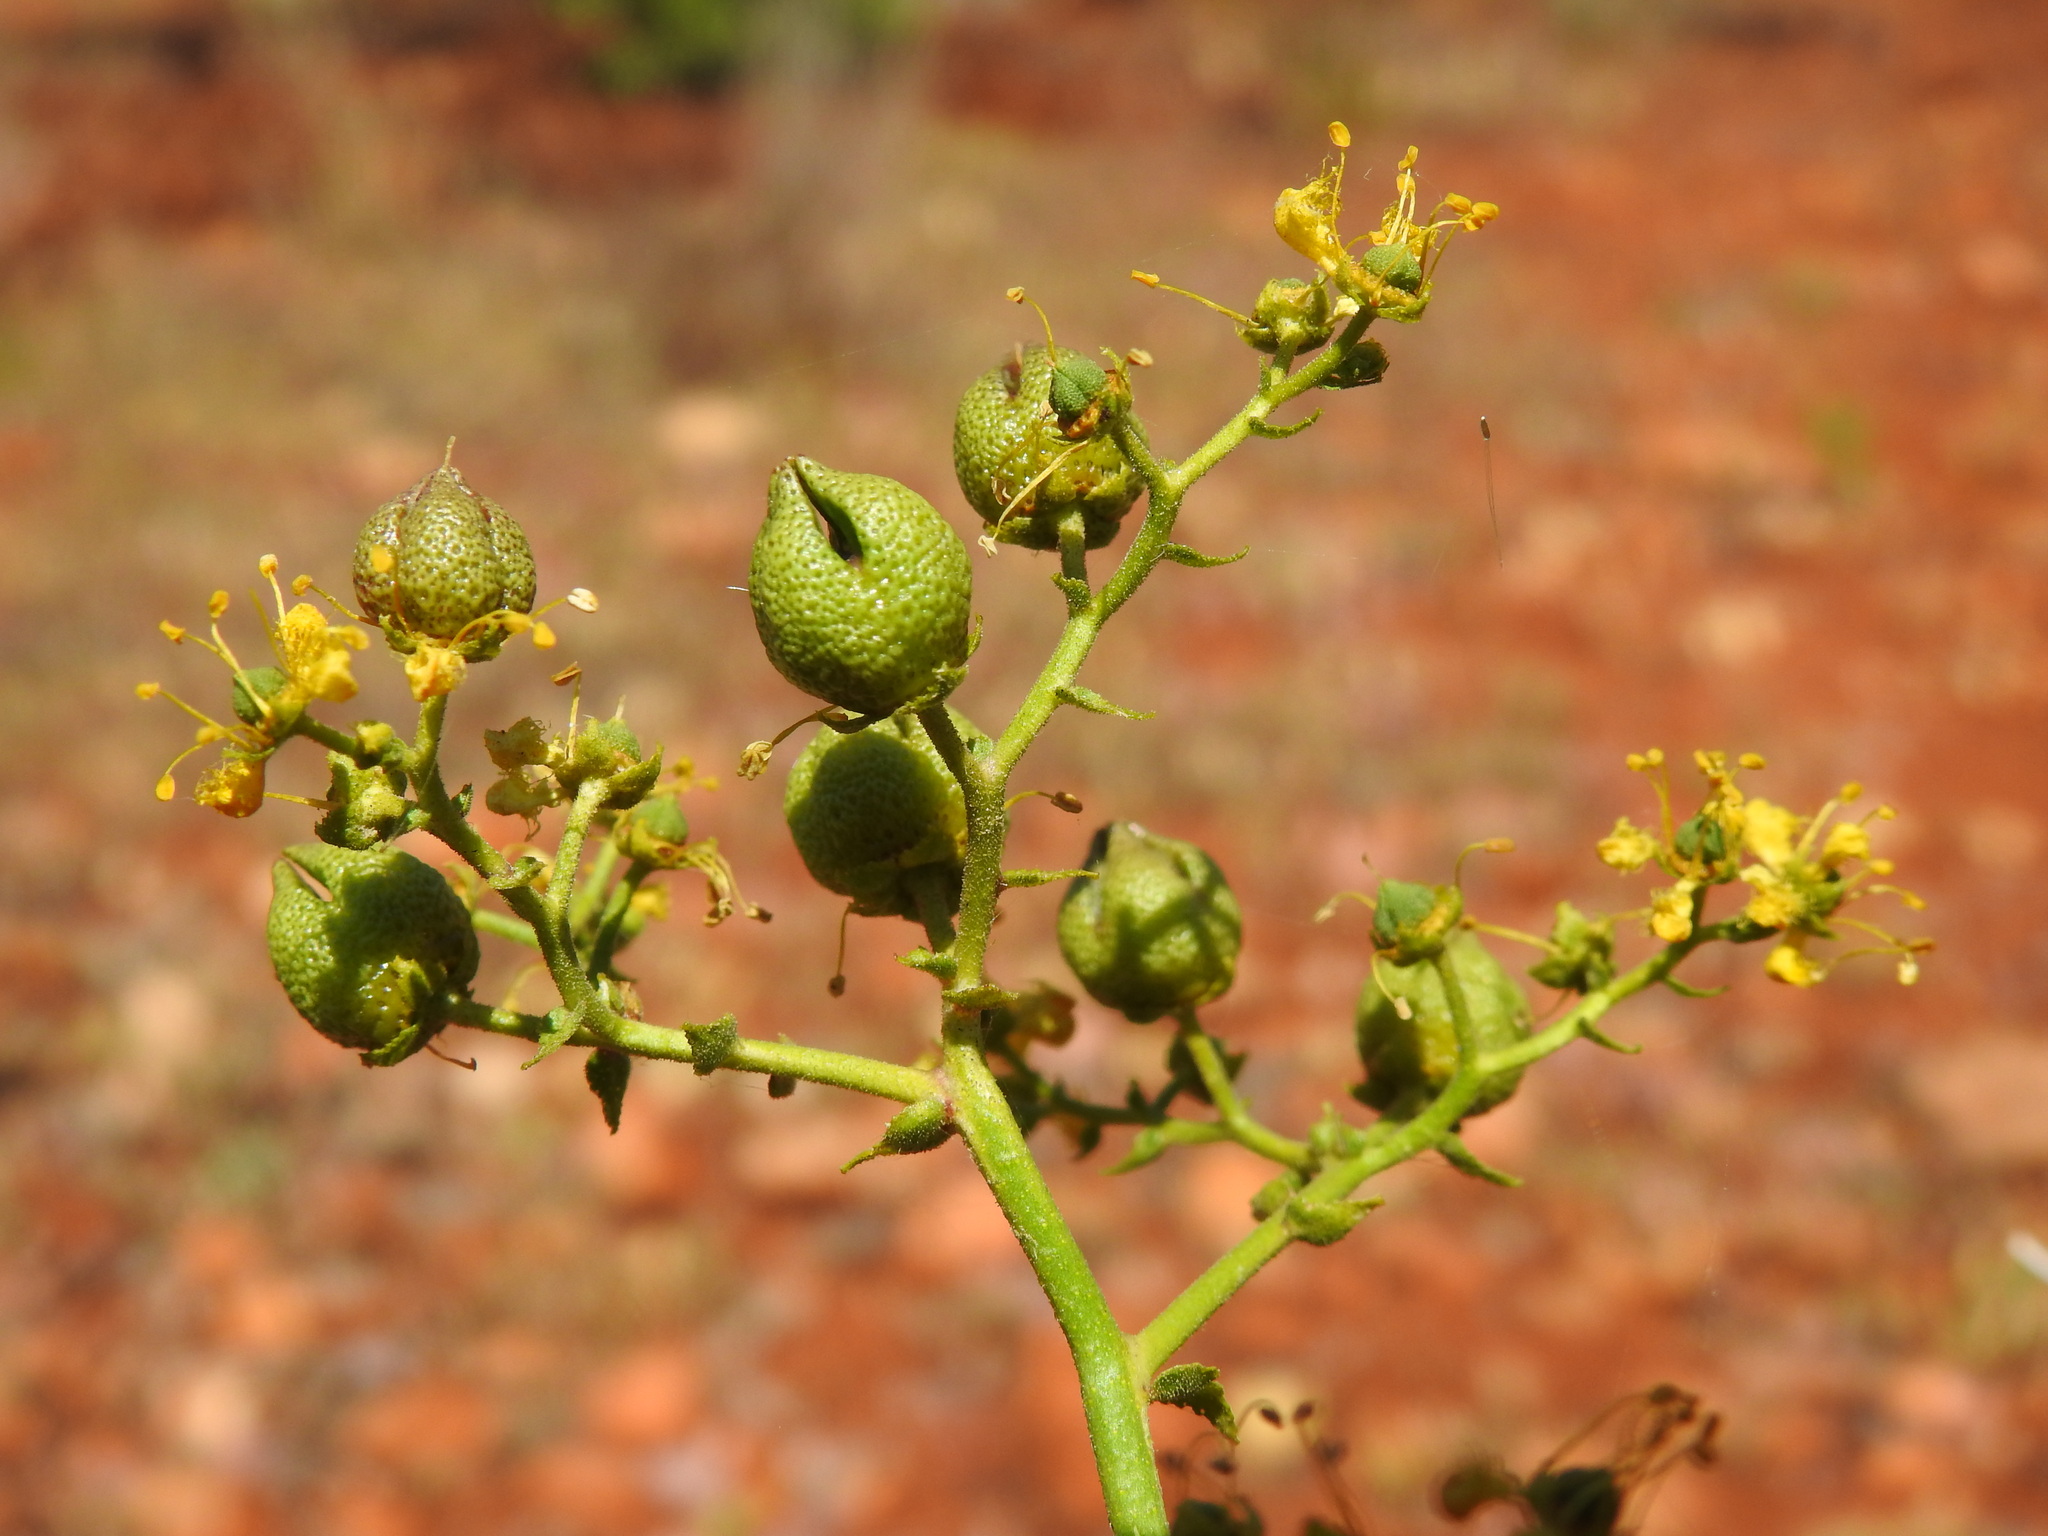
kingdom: Plantae
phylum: Tracheophyta
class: Magnoliopsida
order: Sapindales
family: Rutaceae
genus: Ruta
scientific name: Ruta angustifolia
